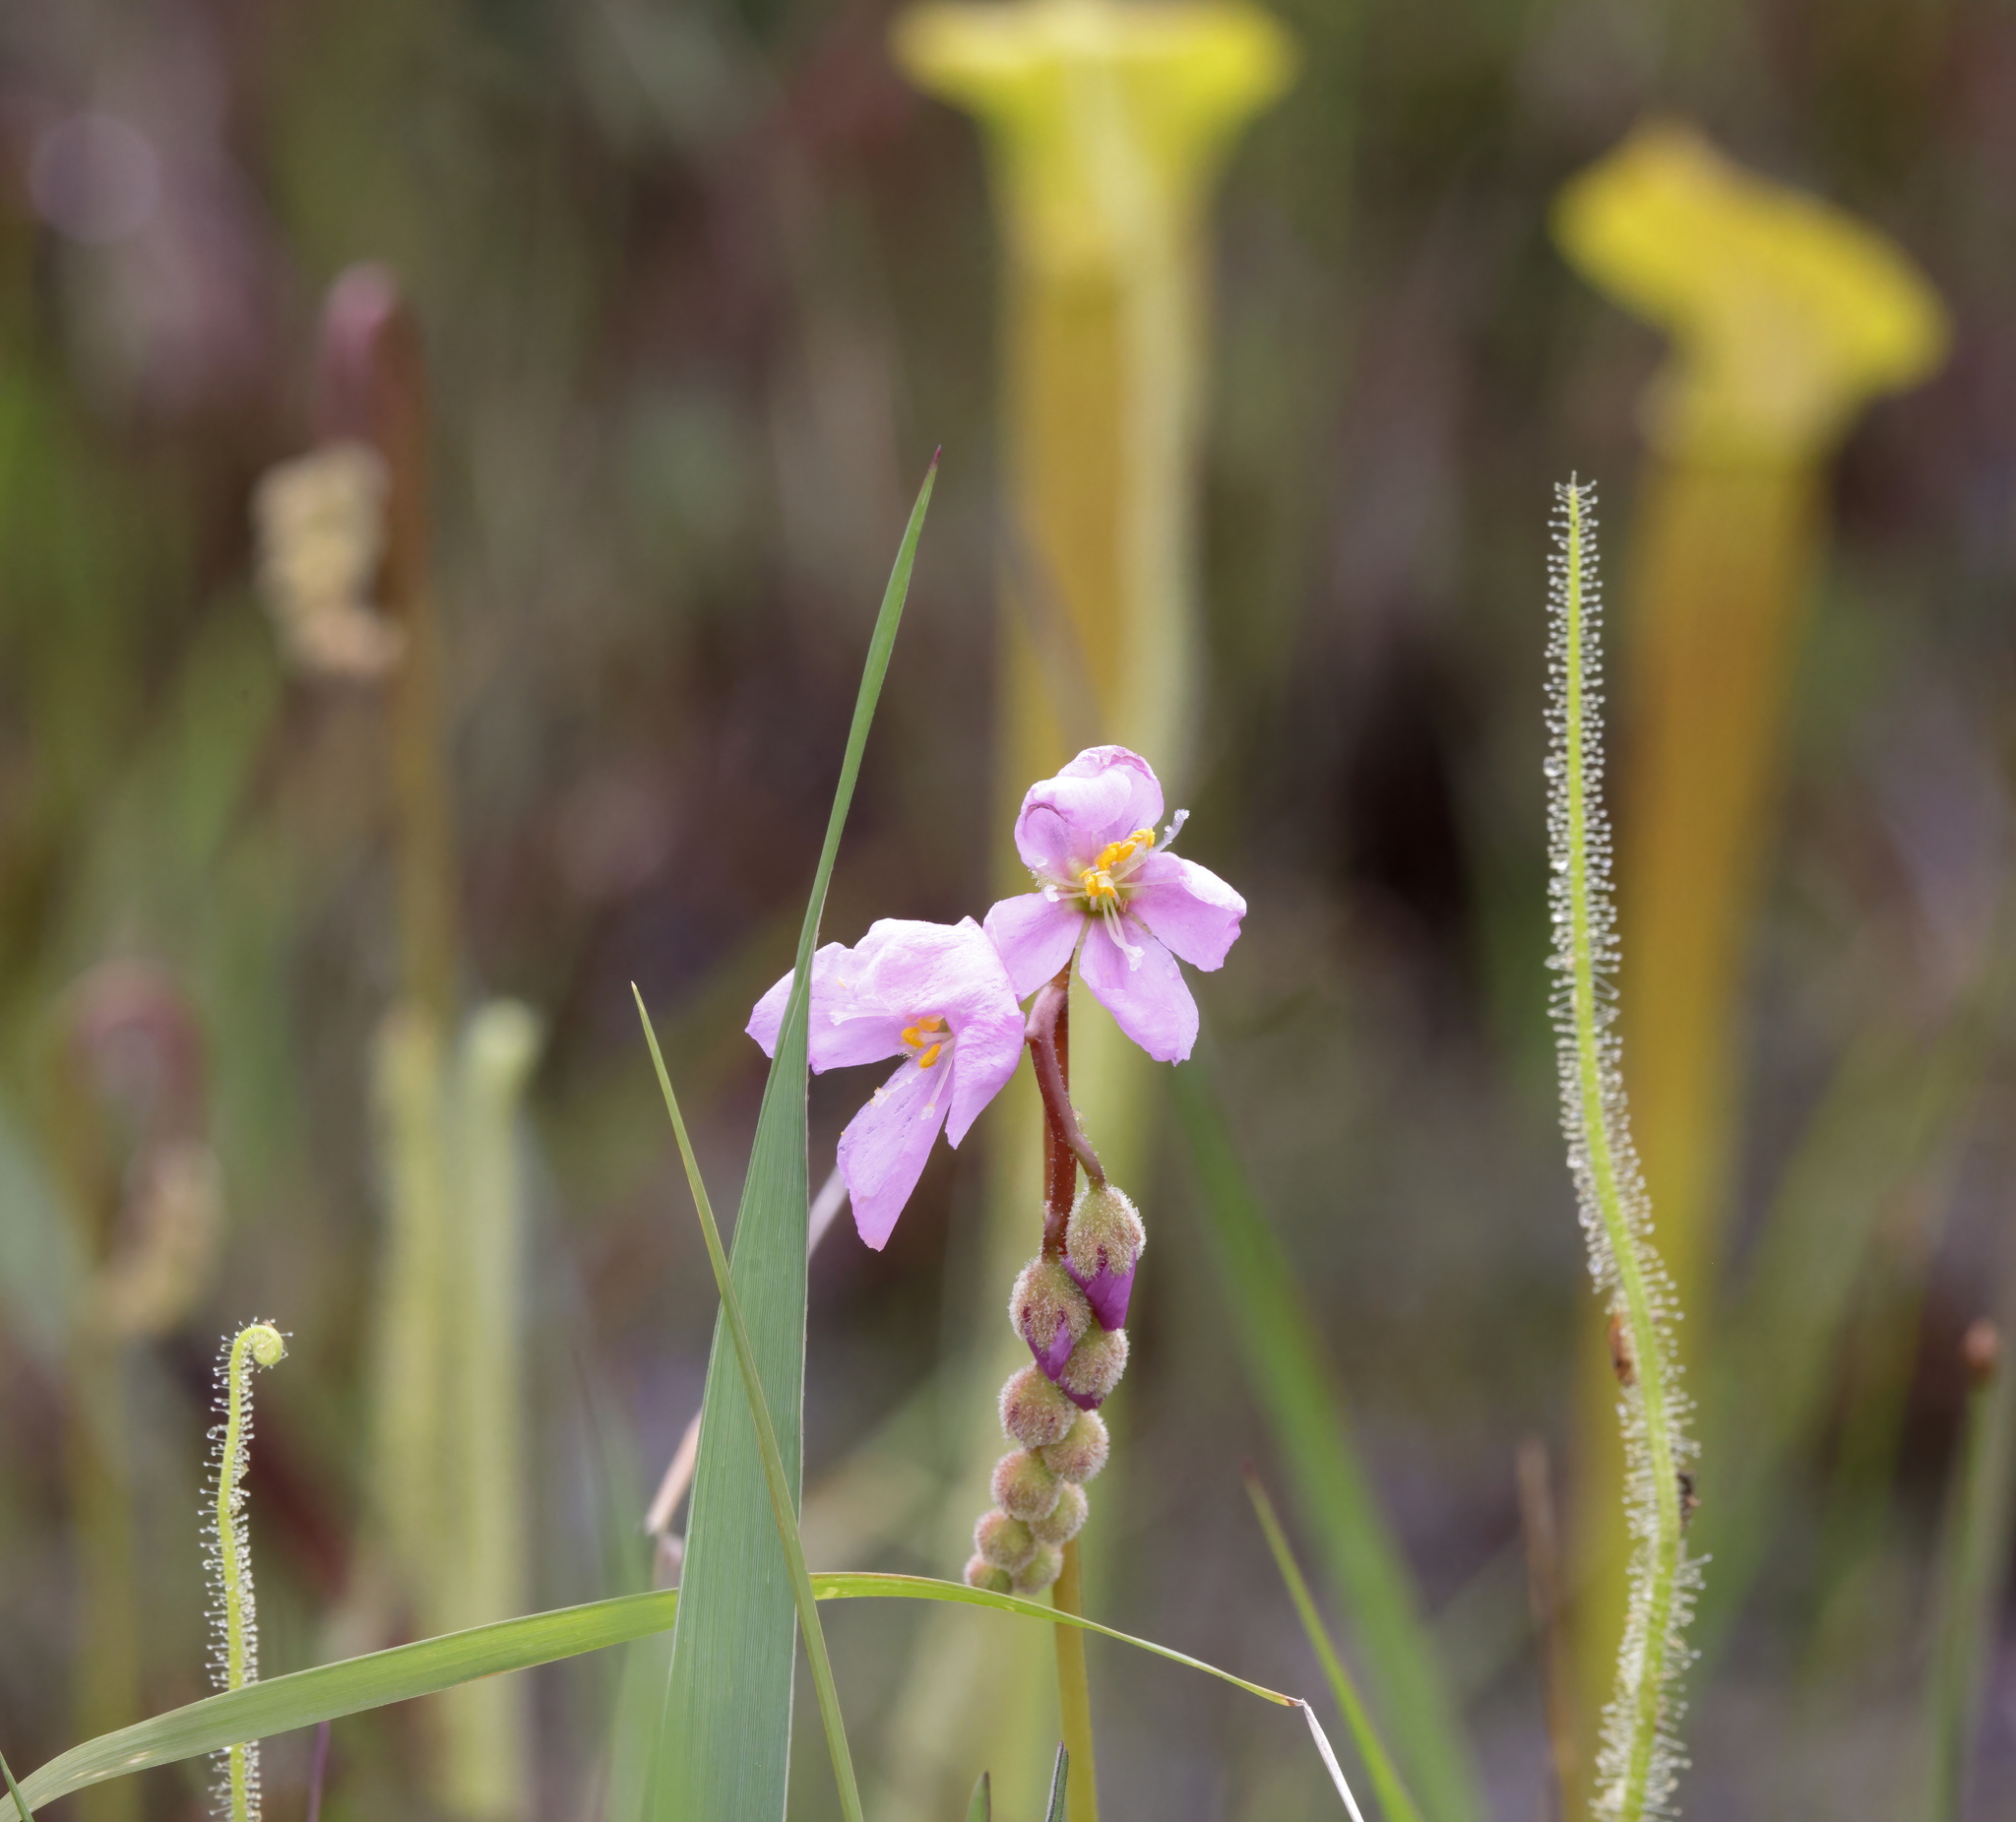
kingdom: Plantae
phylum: Tracheophyta
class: Magnoliopsida
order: Caryophyllales
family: Droseraceae
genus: Drosera
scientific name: Drosera filiformis
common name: Dew-thread
